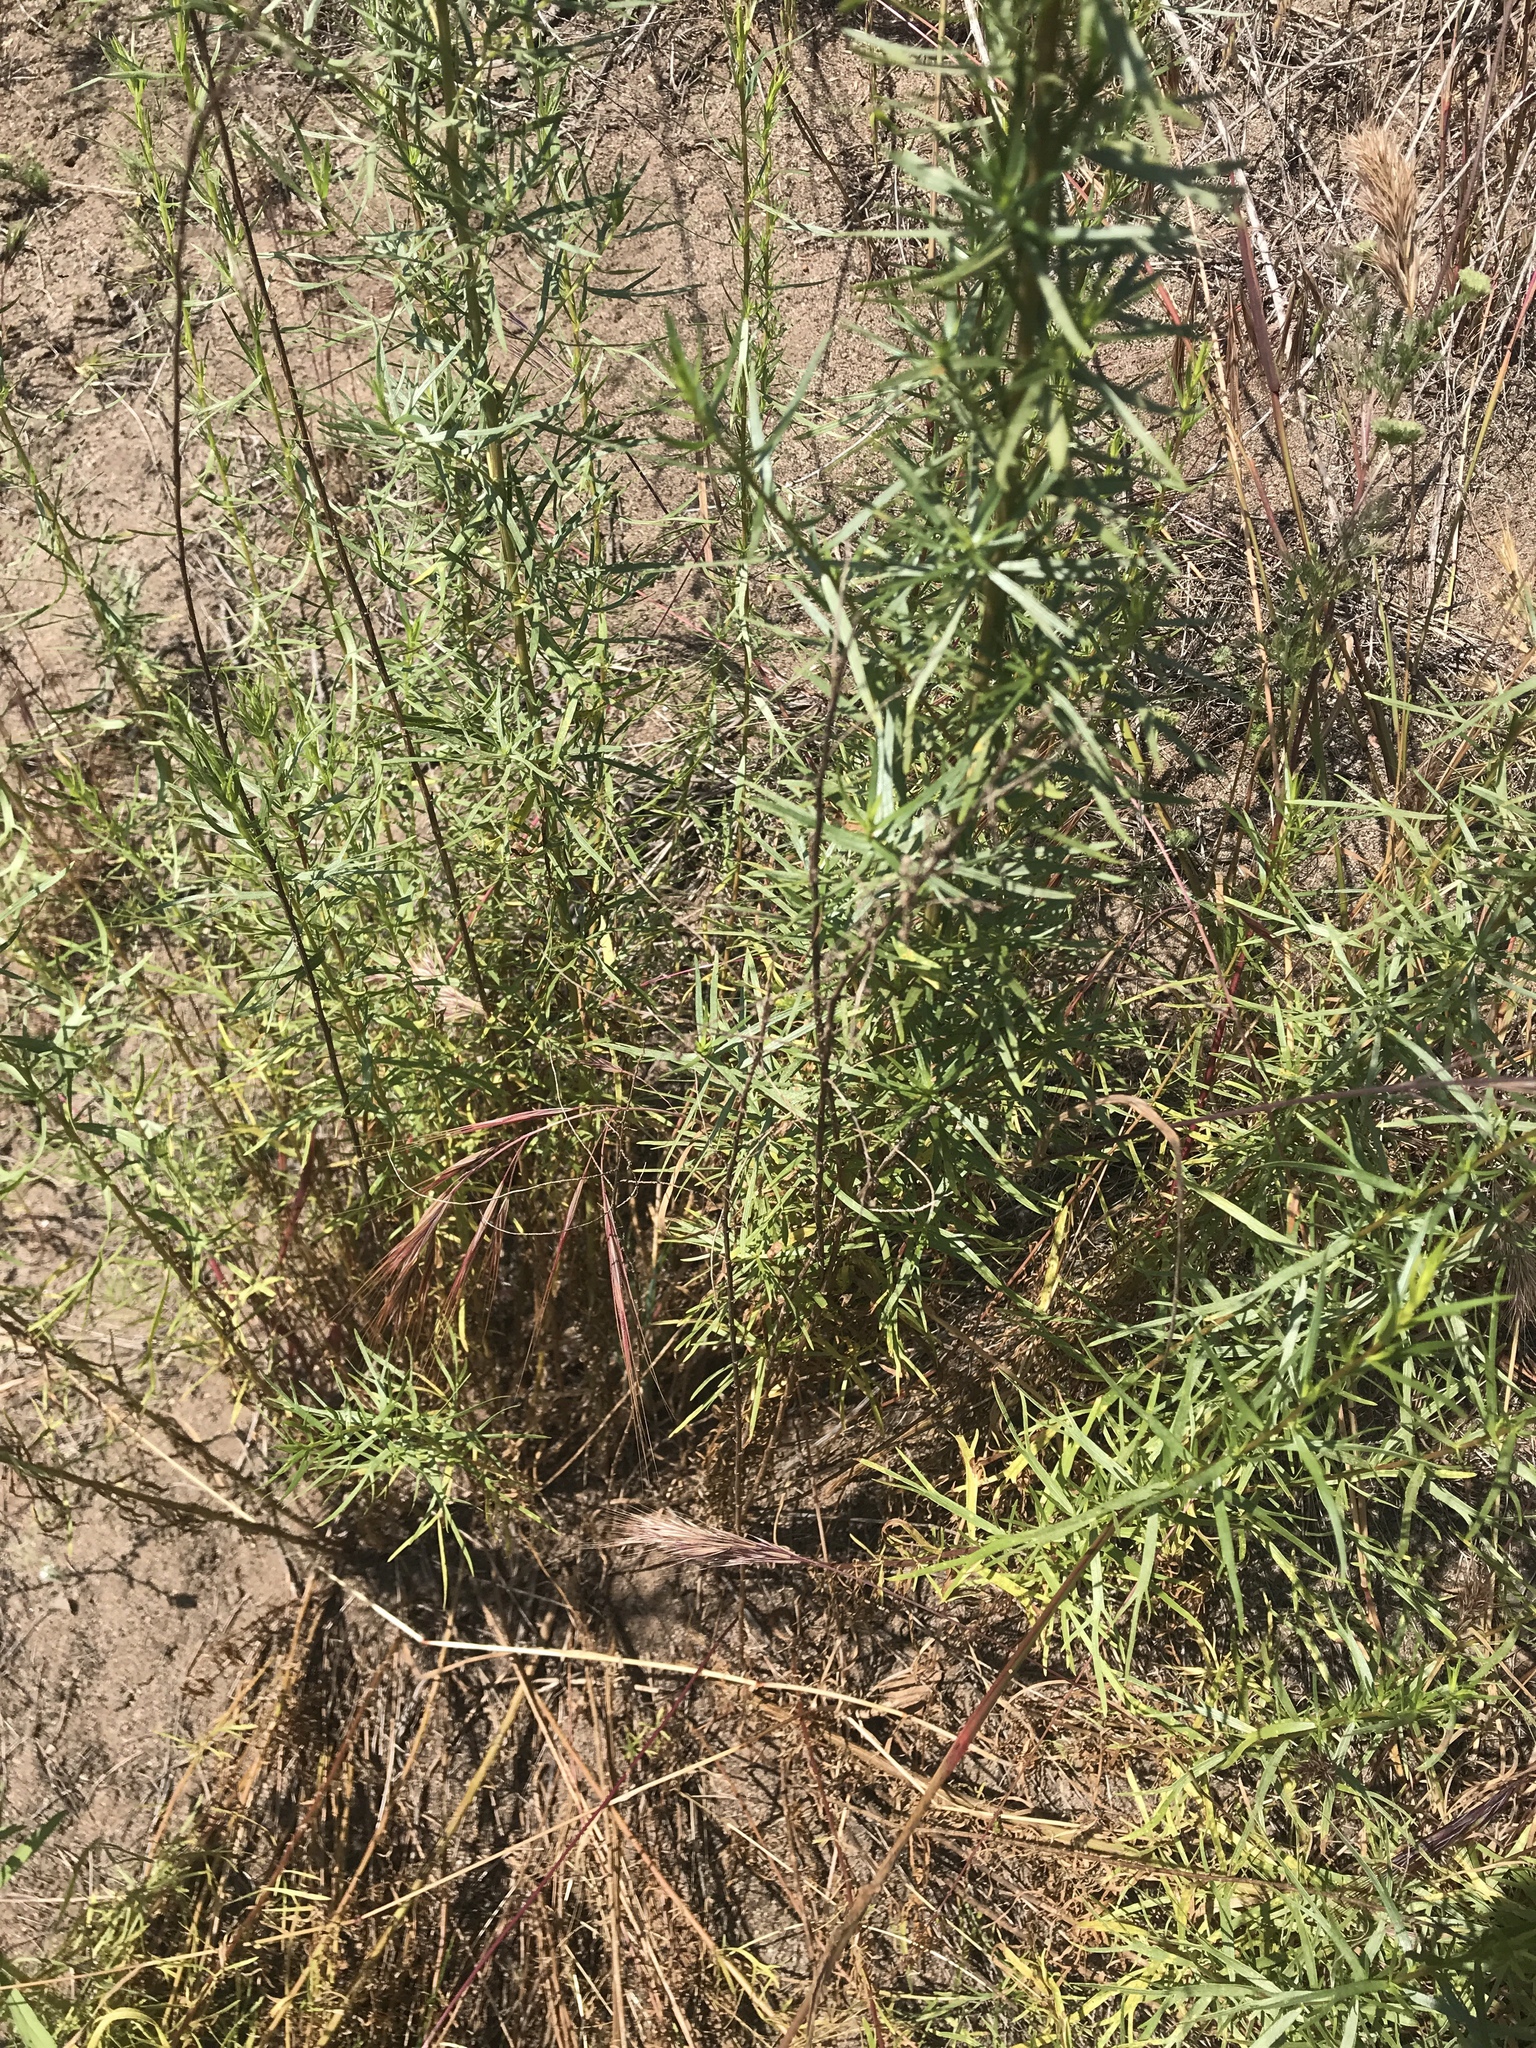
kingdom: Plantae
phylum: Tracheophyta
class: Magnoliopsida
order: Asterales
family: Asteraceae
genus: Artemisia
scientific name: Artemisia dracunculus
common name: Tarragon
